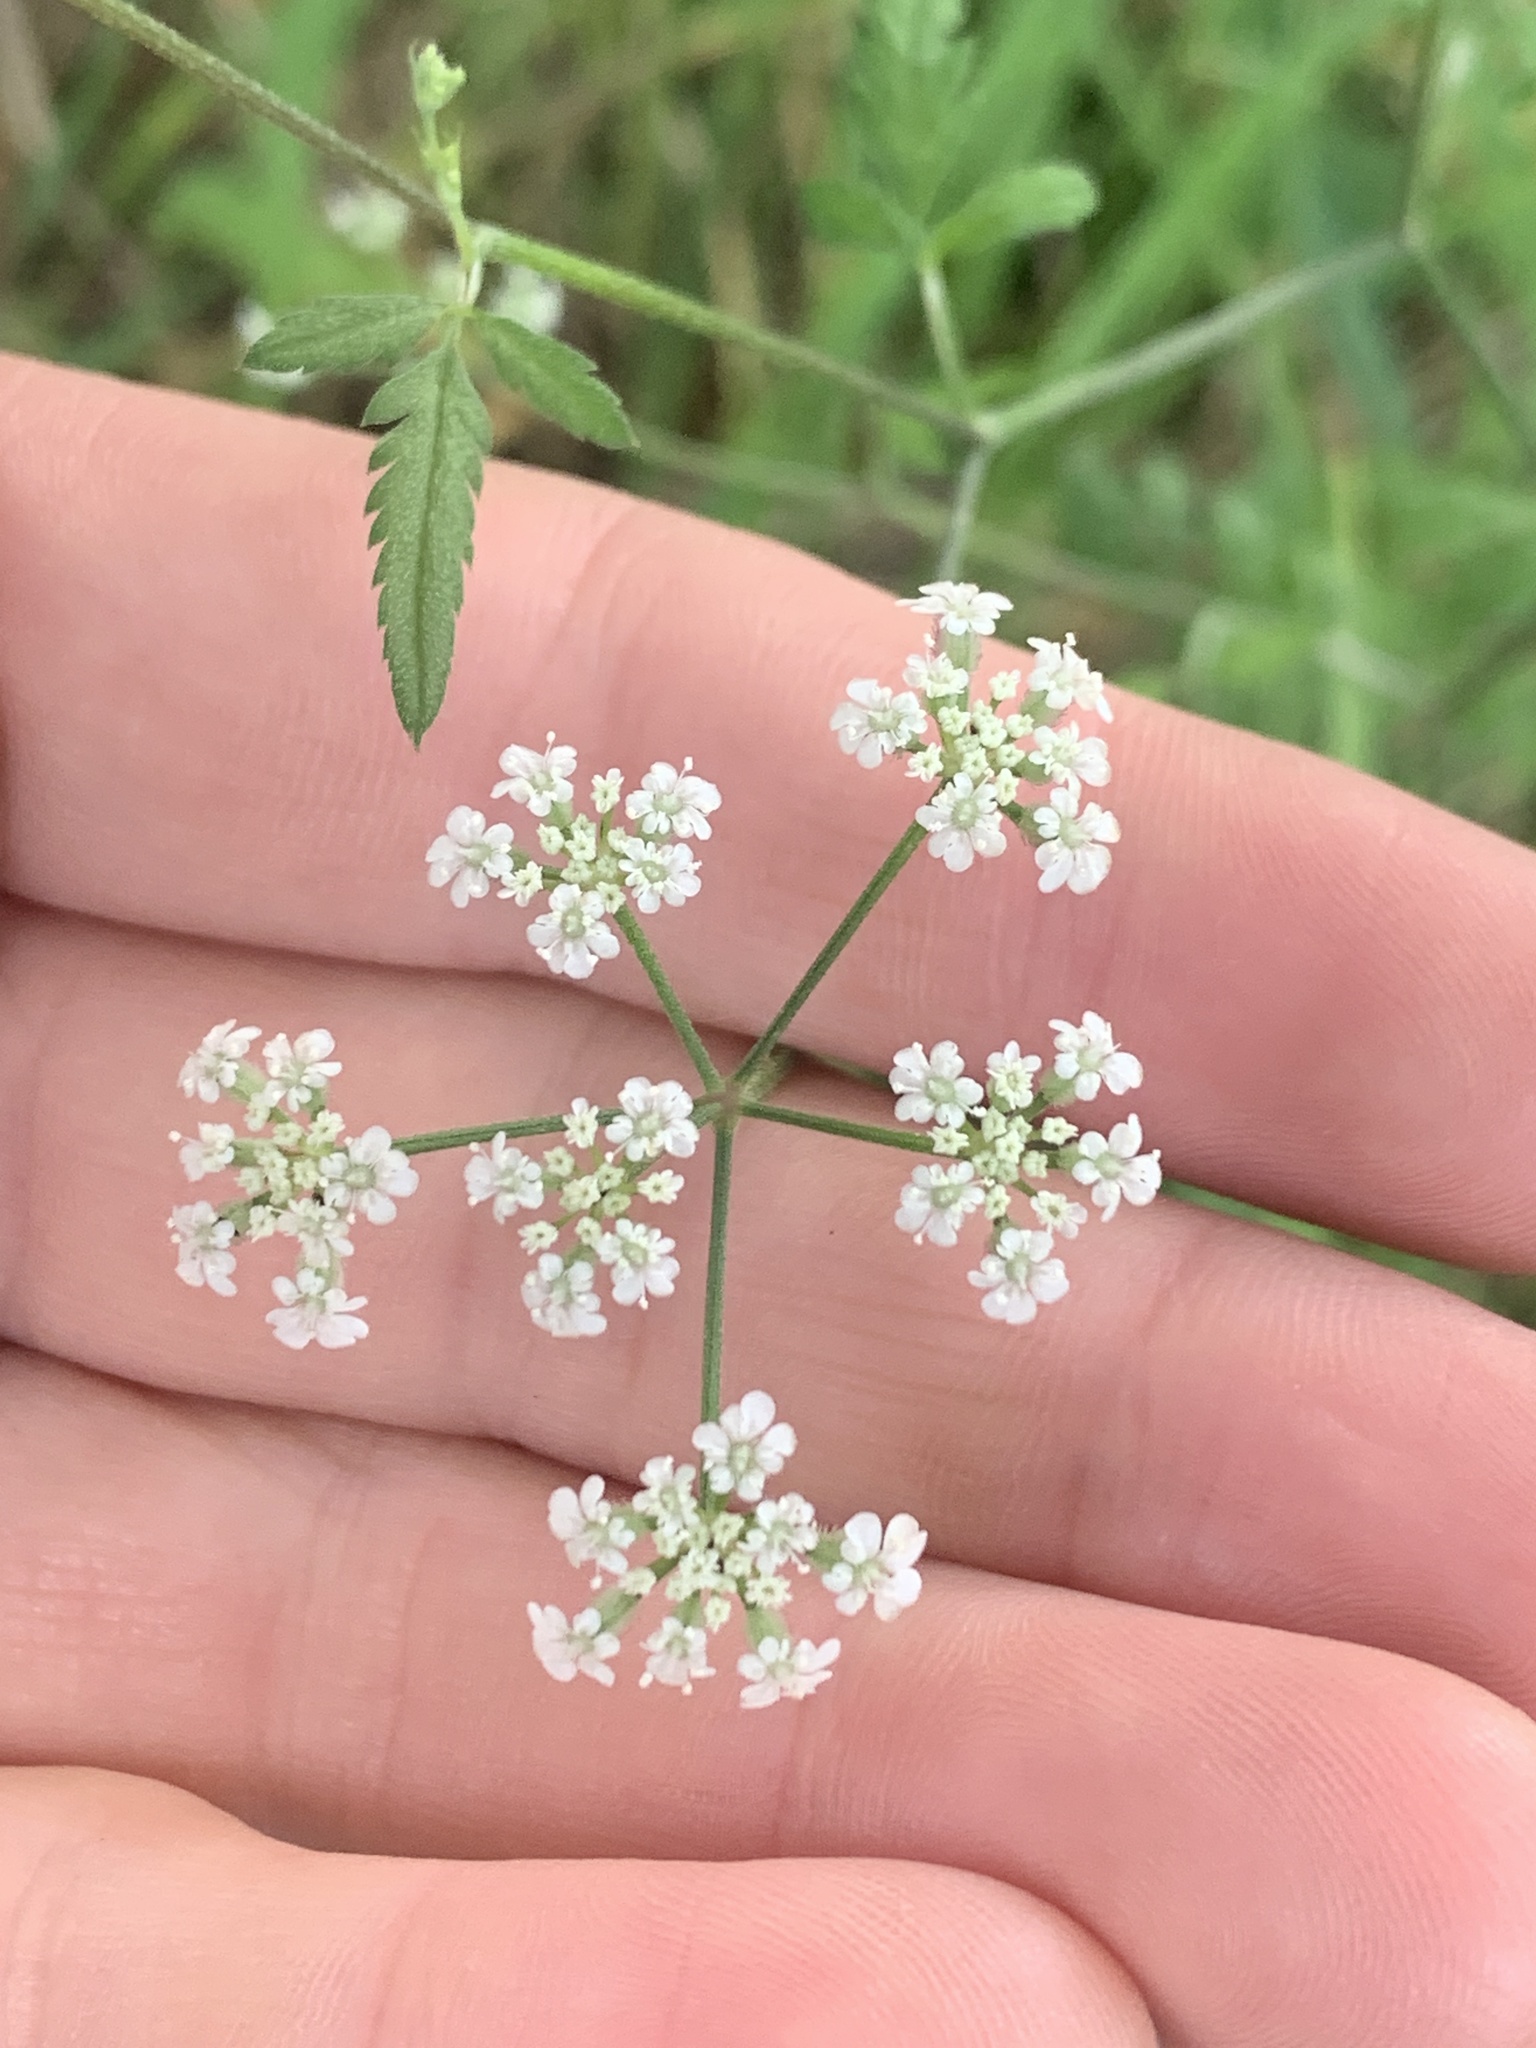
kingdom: Plantae
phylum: Tracheophyta
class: Magnoliopsida
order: Apiales
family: Apiaceae
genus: Torilis
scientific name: Torilis arvensis
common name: Spreading hedge-parsley
